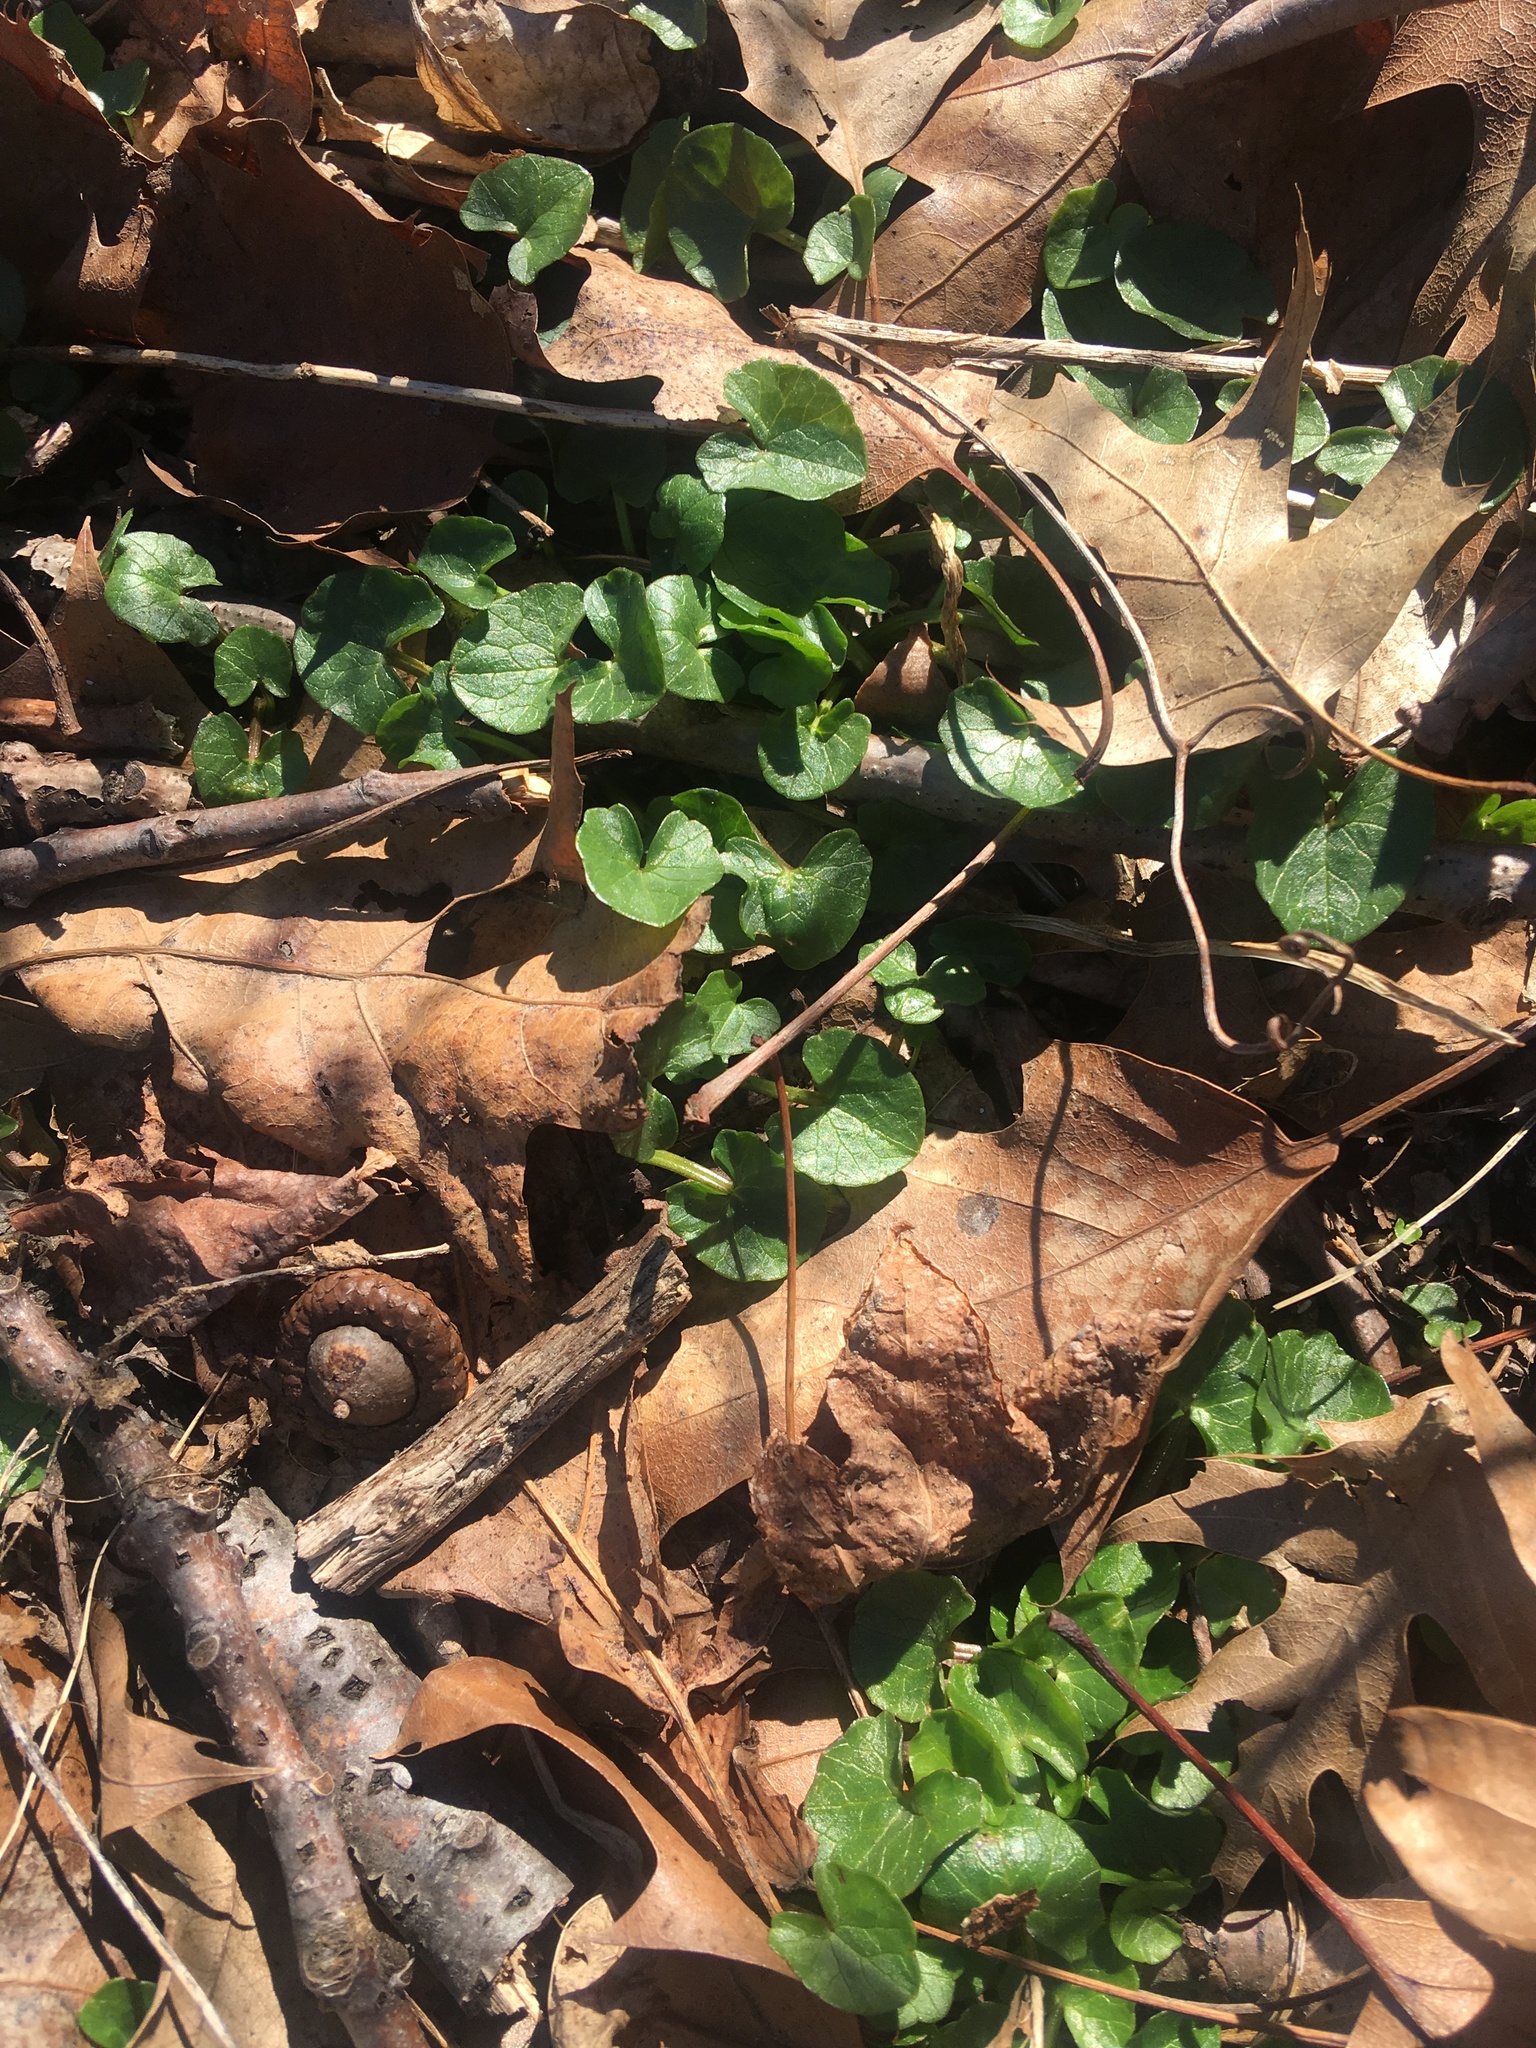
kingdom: Plantae
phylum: Tracheophyta
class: Magnoliopsida
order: Ranunculales
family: Ranunculaceae
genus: Ficaria
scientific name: Ficaria verna
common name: Lesser celandine
